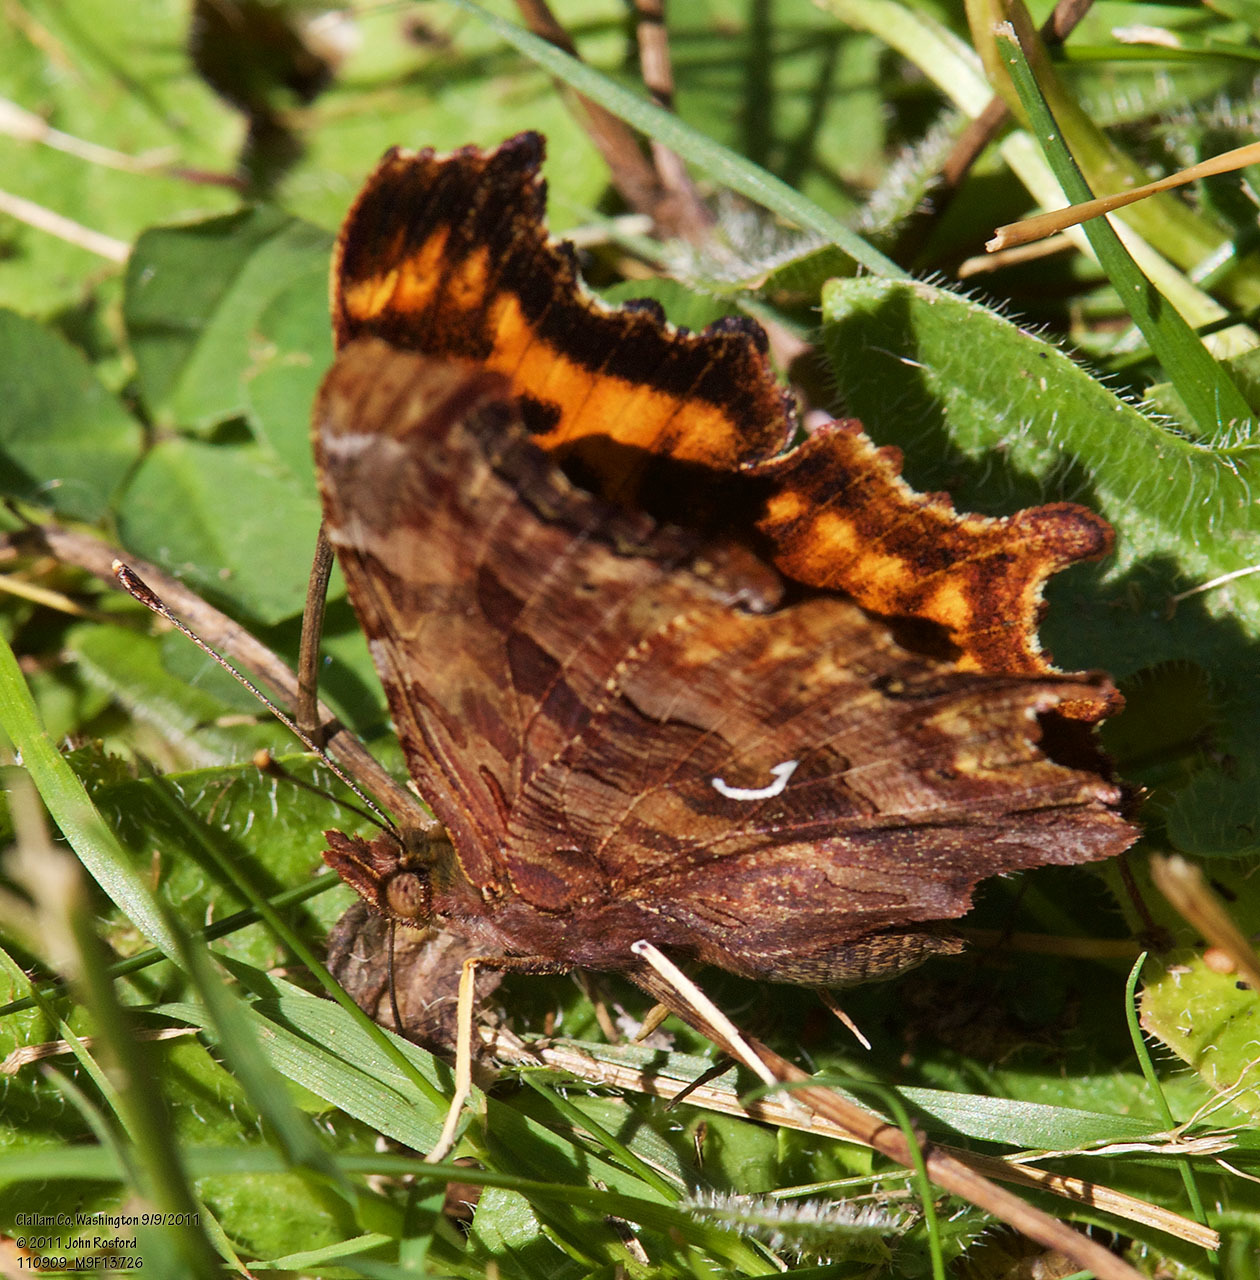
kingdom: Animalia
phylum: Arthropoda
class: Insecta
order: Lepidoptera
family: Nymphalidae
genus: Polygonia
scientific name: Polygonia satyrus
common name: Satyr angle wing
